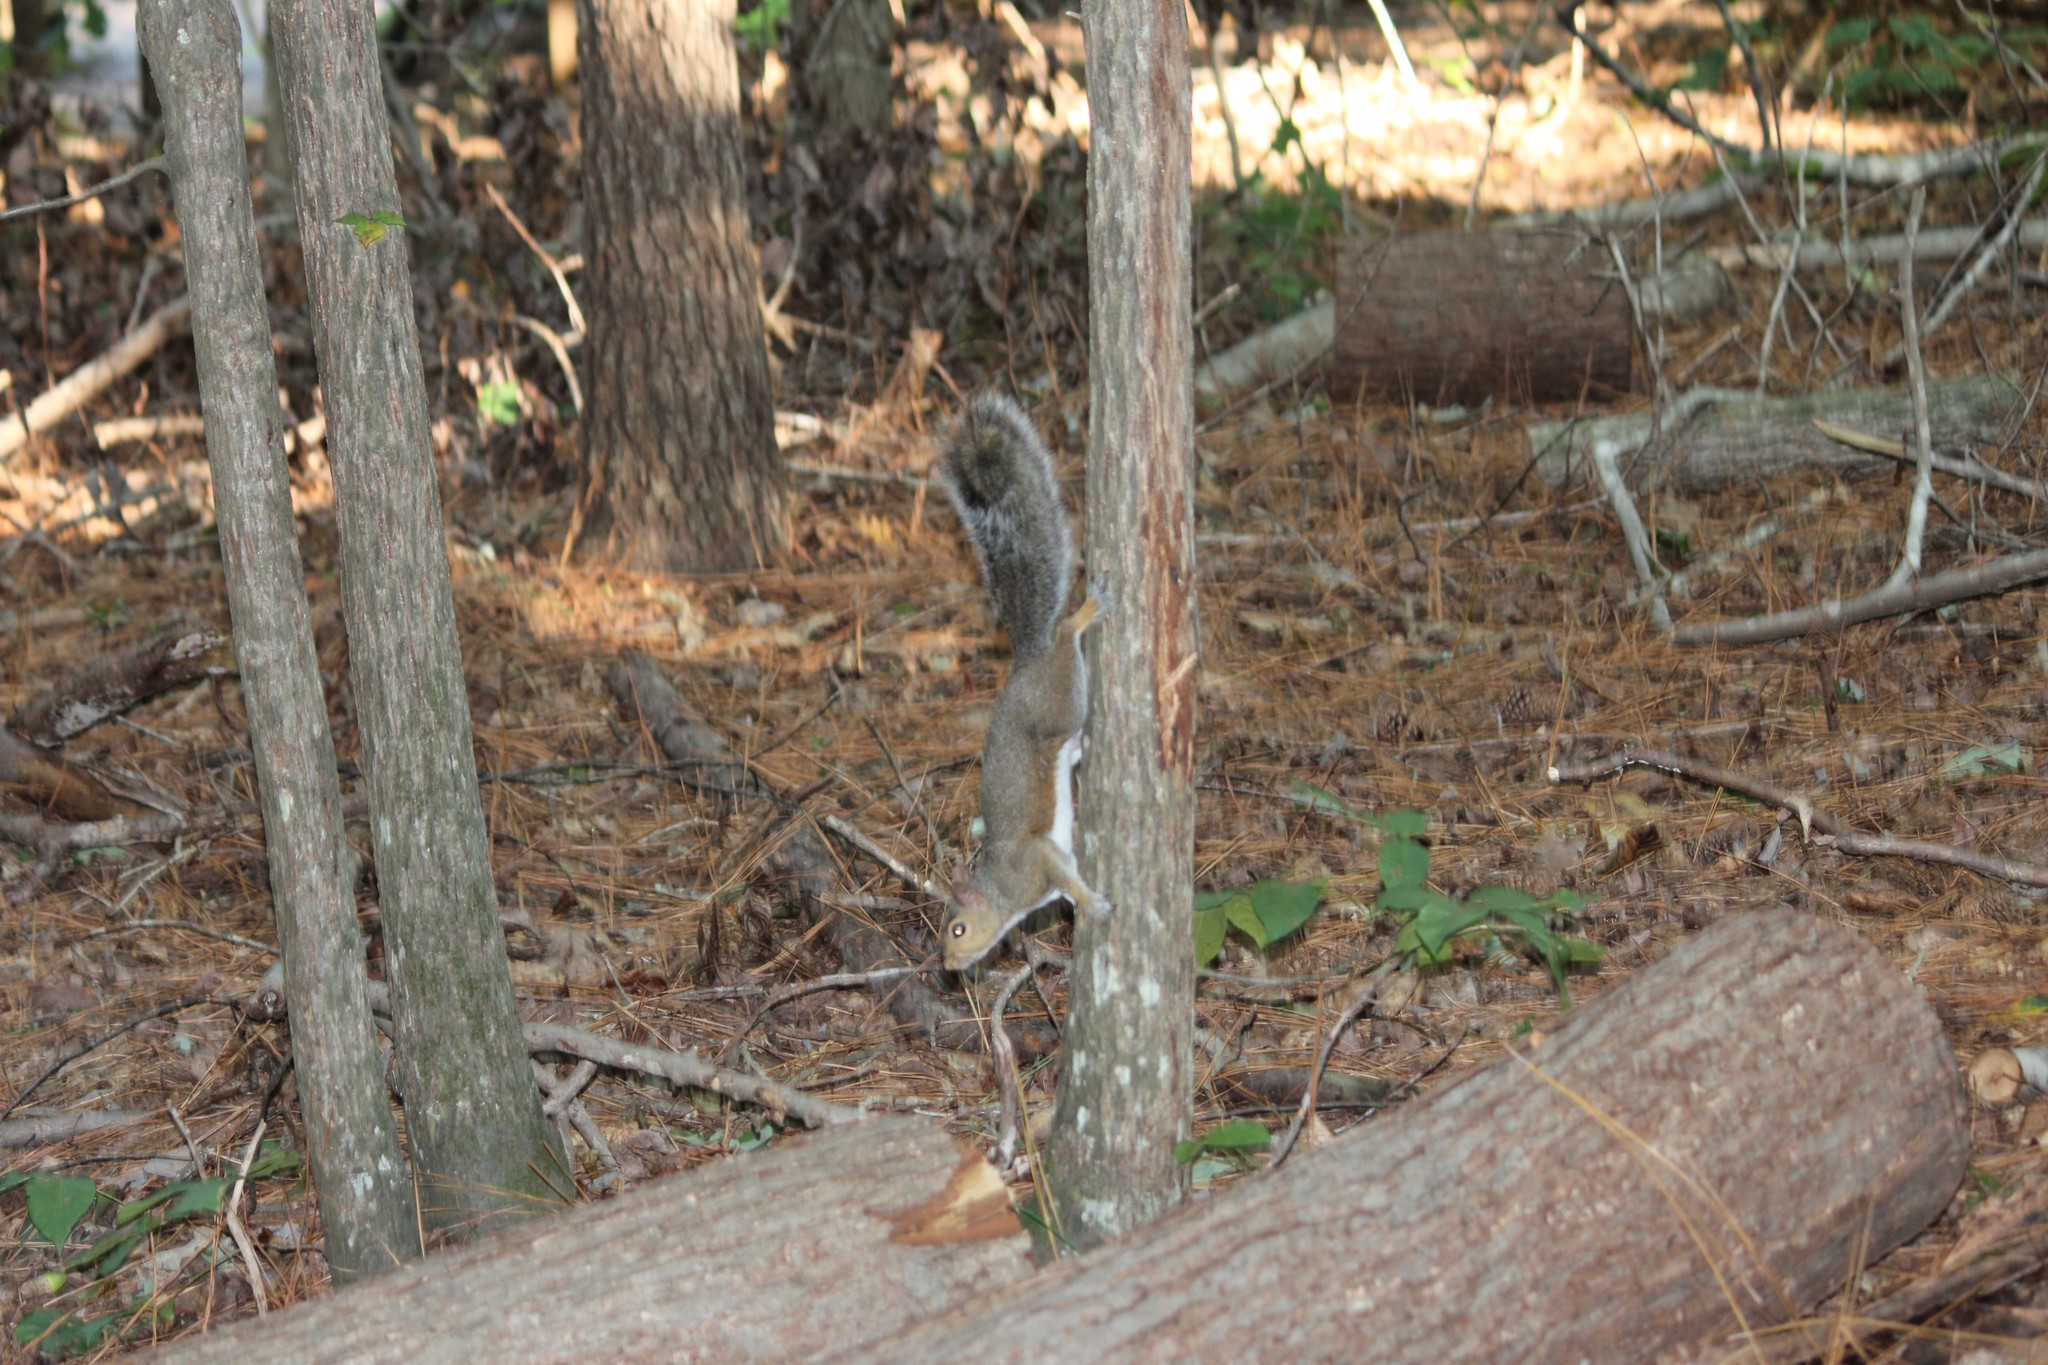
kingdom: Animalia
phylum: Chordata
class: Mammalia
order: Rodentia
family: Sciuridae
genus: Sciurus
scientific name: Sciurus carolinensis
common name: Eastern gray squirrel
